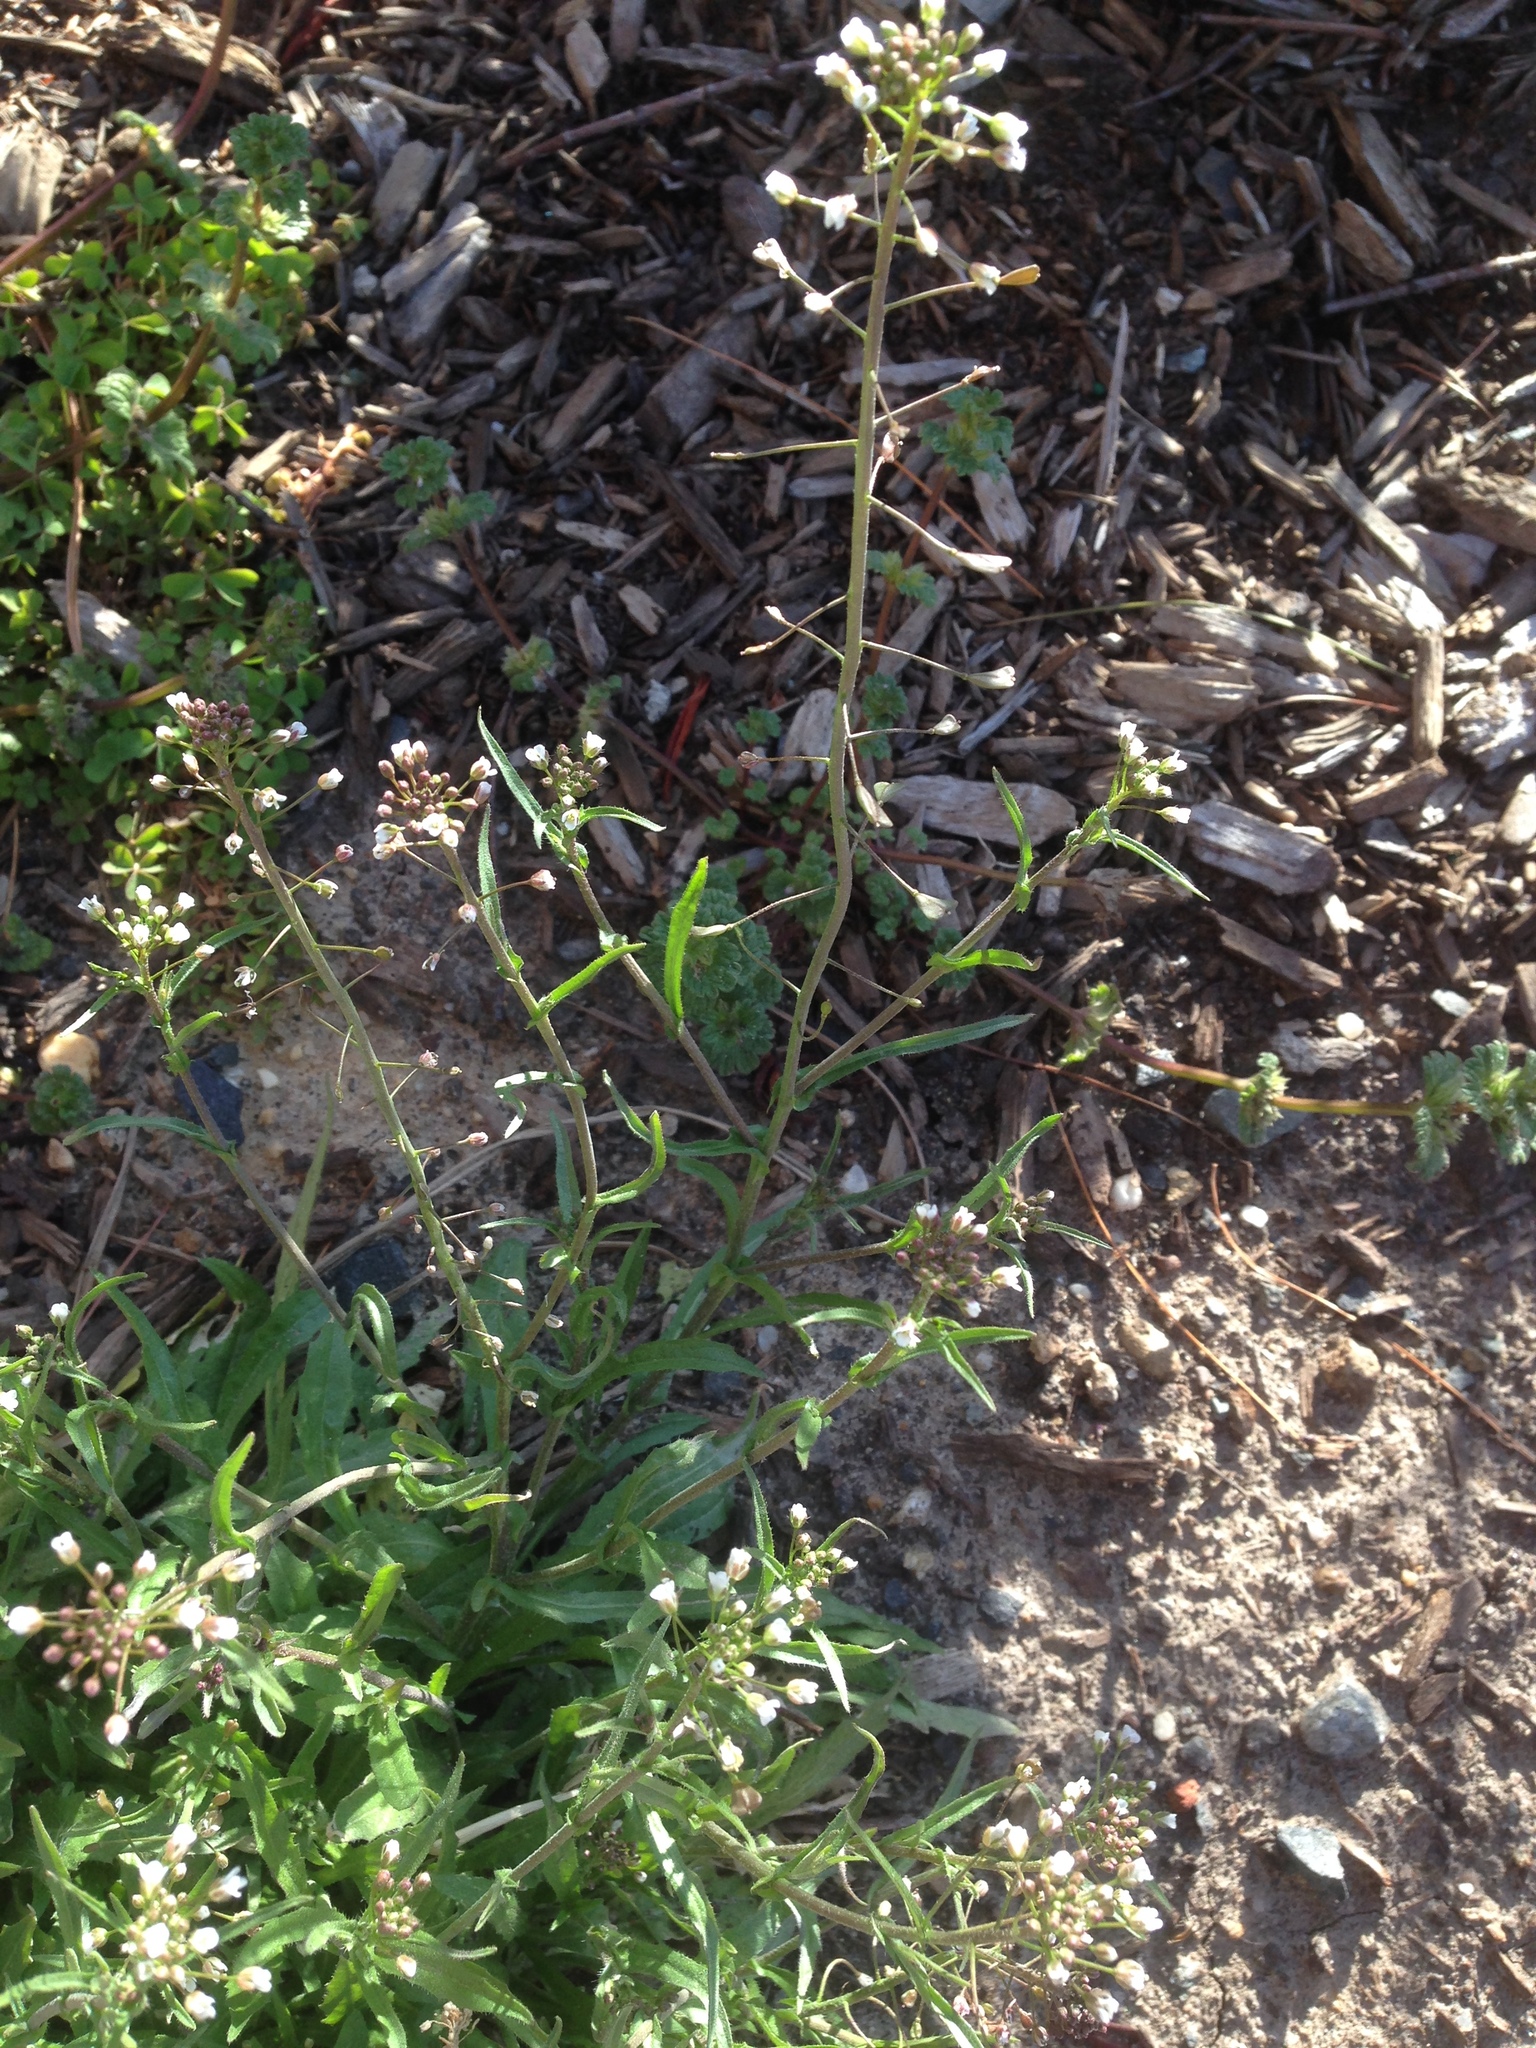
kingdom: Plantae
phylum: Tracheophyta
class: Magnoliopsida
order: Brassicales
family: Brassicaceae
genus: Capsella
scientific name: Capsella bursa-pastoris
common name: Shepherd's purse
